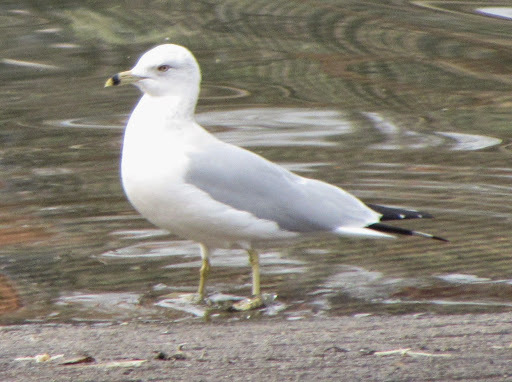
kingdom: Animalia
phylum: Chordata
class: Aves
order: Charadriiformes
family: Laridae
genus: Larus
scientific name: Larus delawarensis
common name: Ring-billed gull
